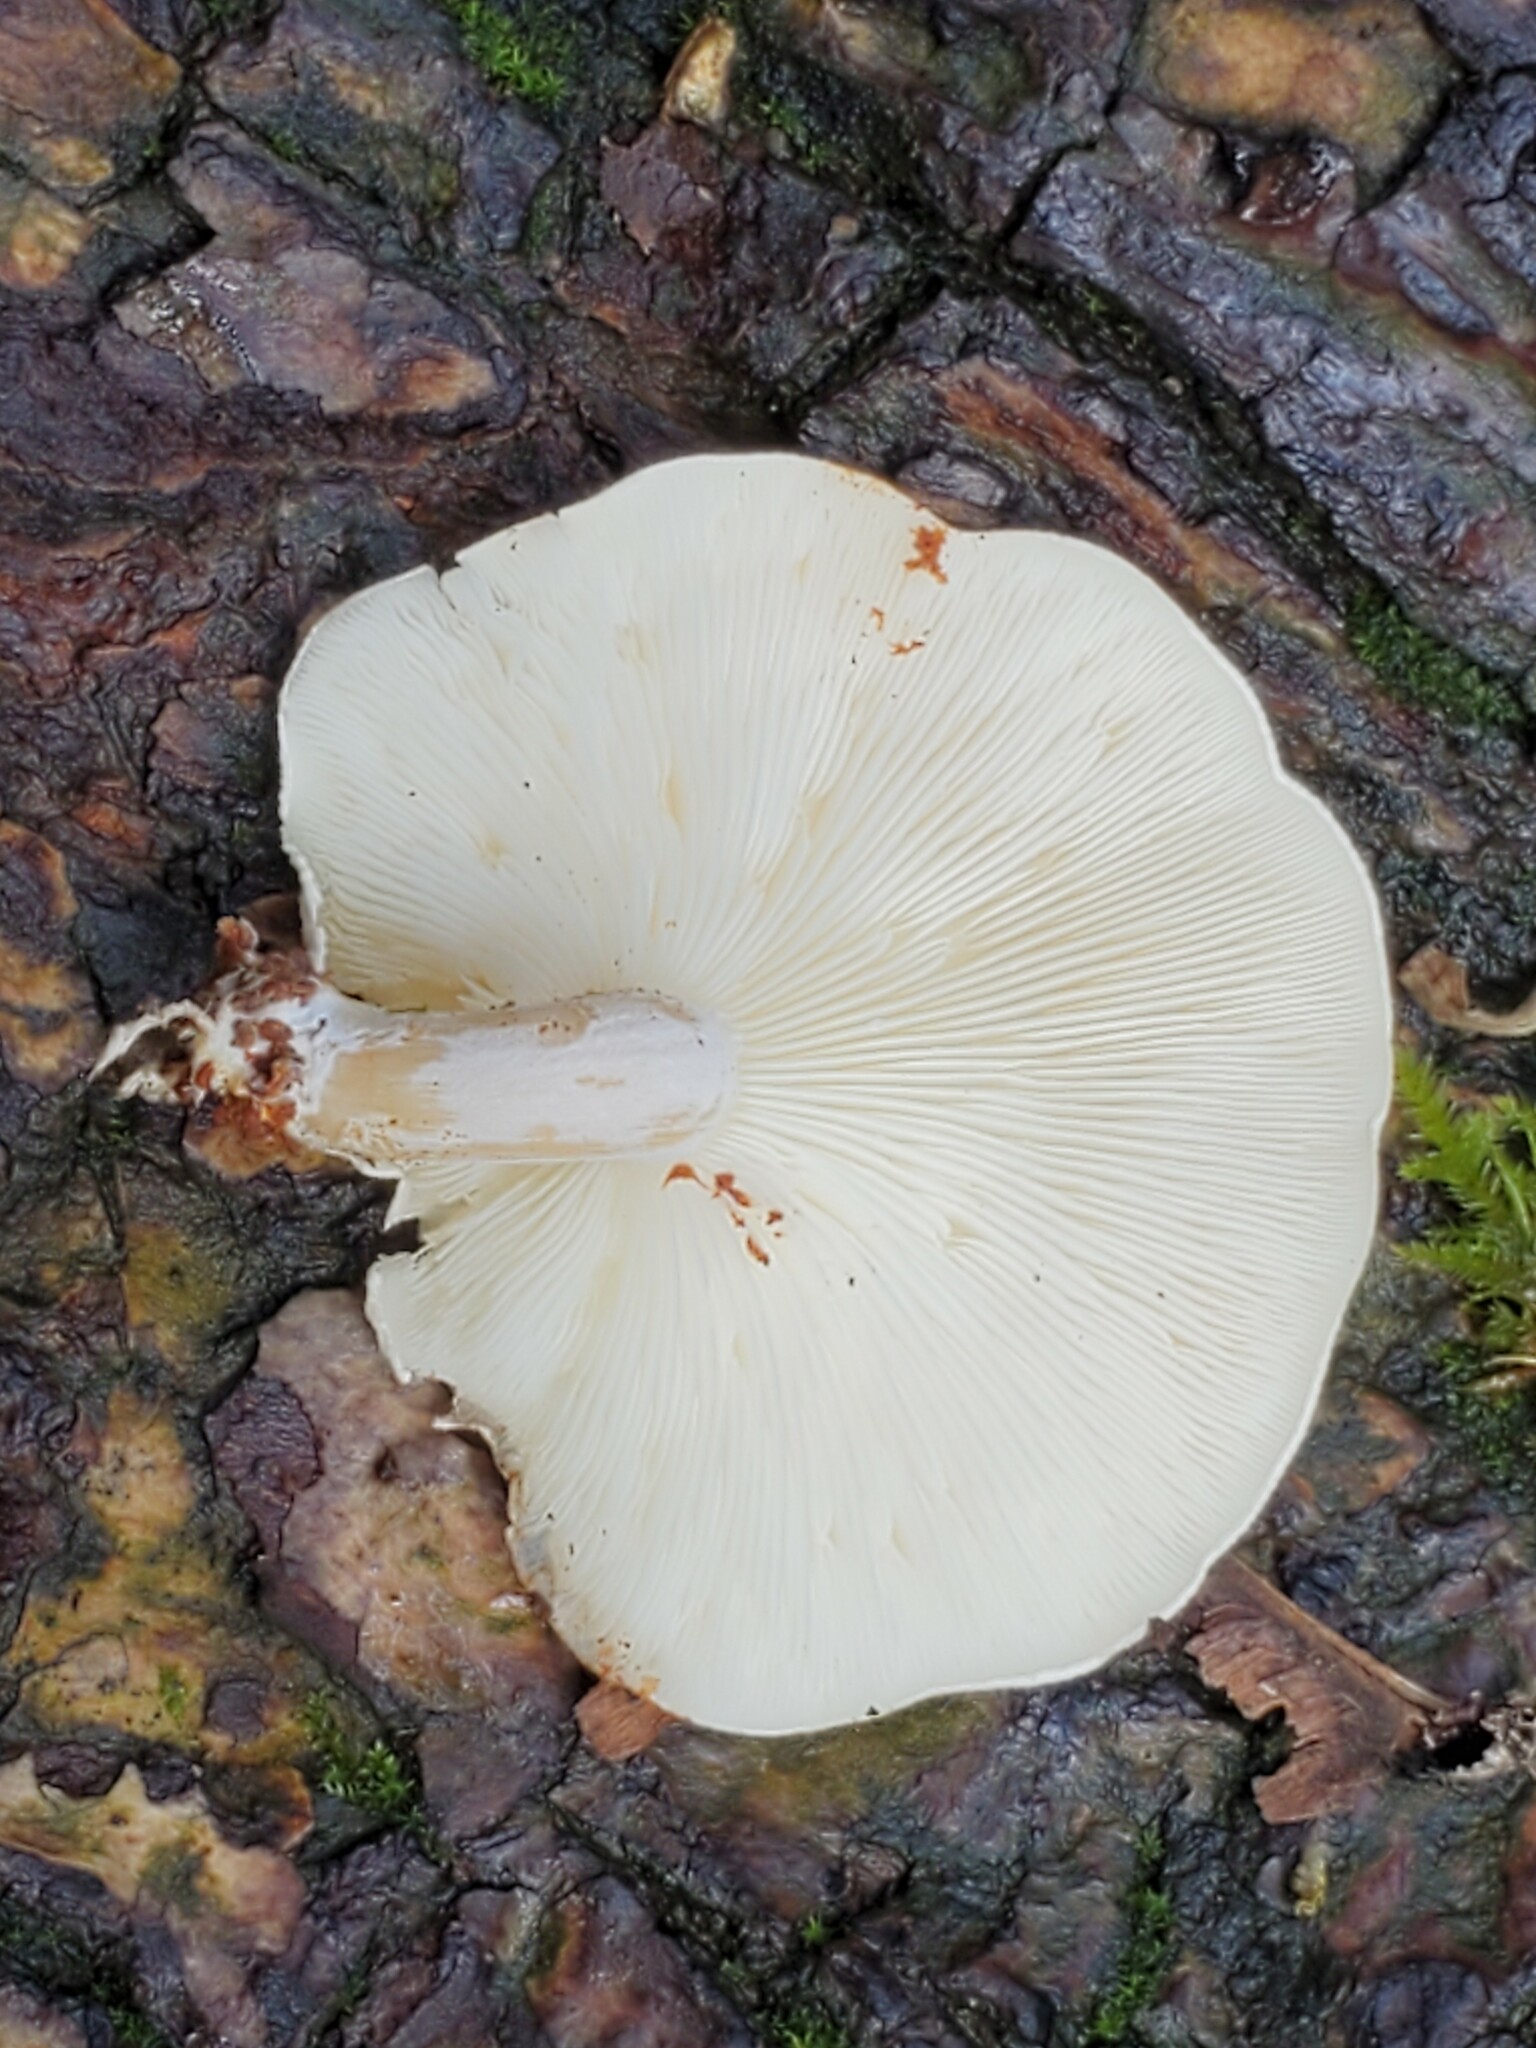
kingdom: Fungi
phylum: Basidiomycota
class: Agaricomycetes
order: Agaricales
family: Lyophyllaceae
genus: Ossicaulis
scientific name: Ossicaulis lignatilis
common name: Mealy oyster
